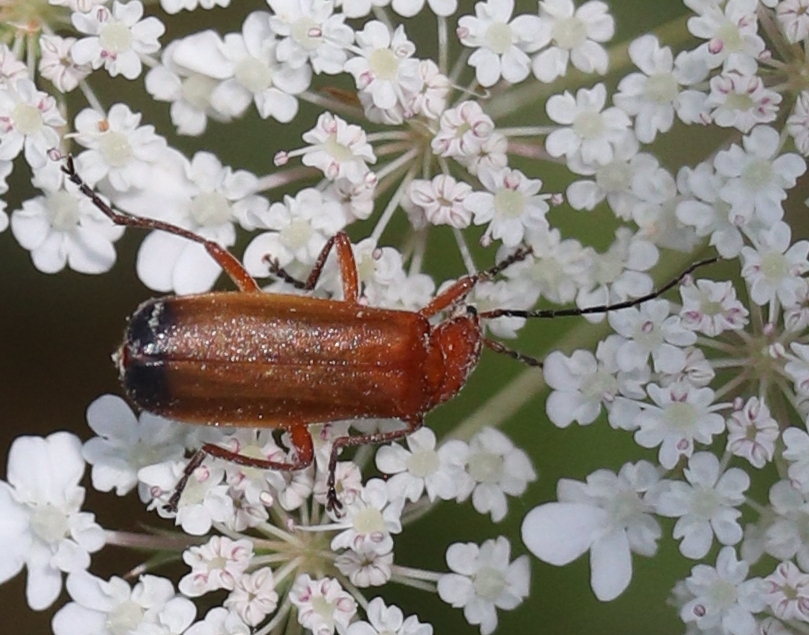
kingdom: Animalia
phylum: Arthropoda
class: Insecta
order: Coleoptera
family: Cantharidae
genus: Rhagonycha
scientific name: Rhagonycha fulva
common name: Common red soldier beetle
